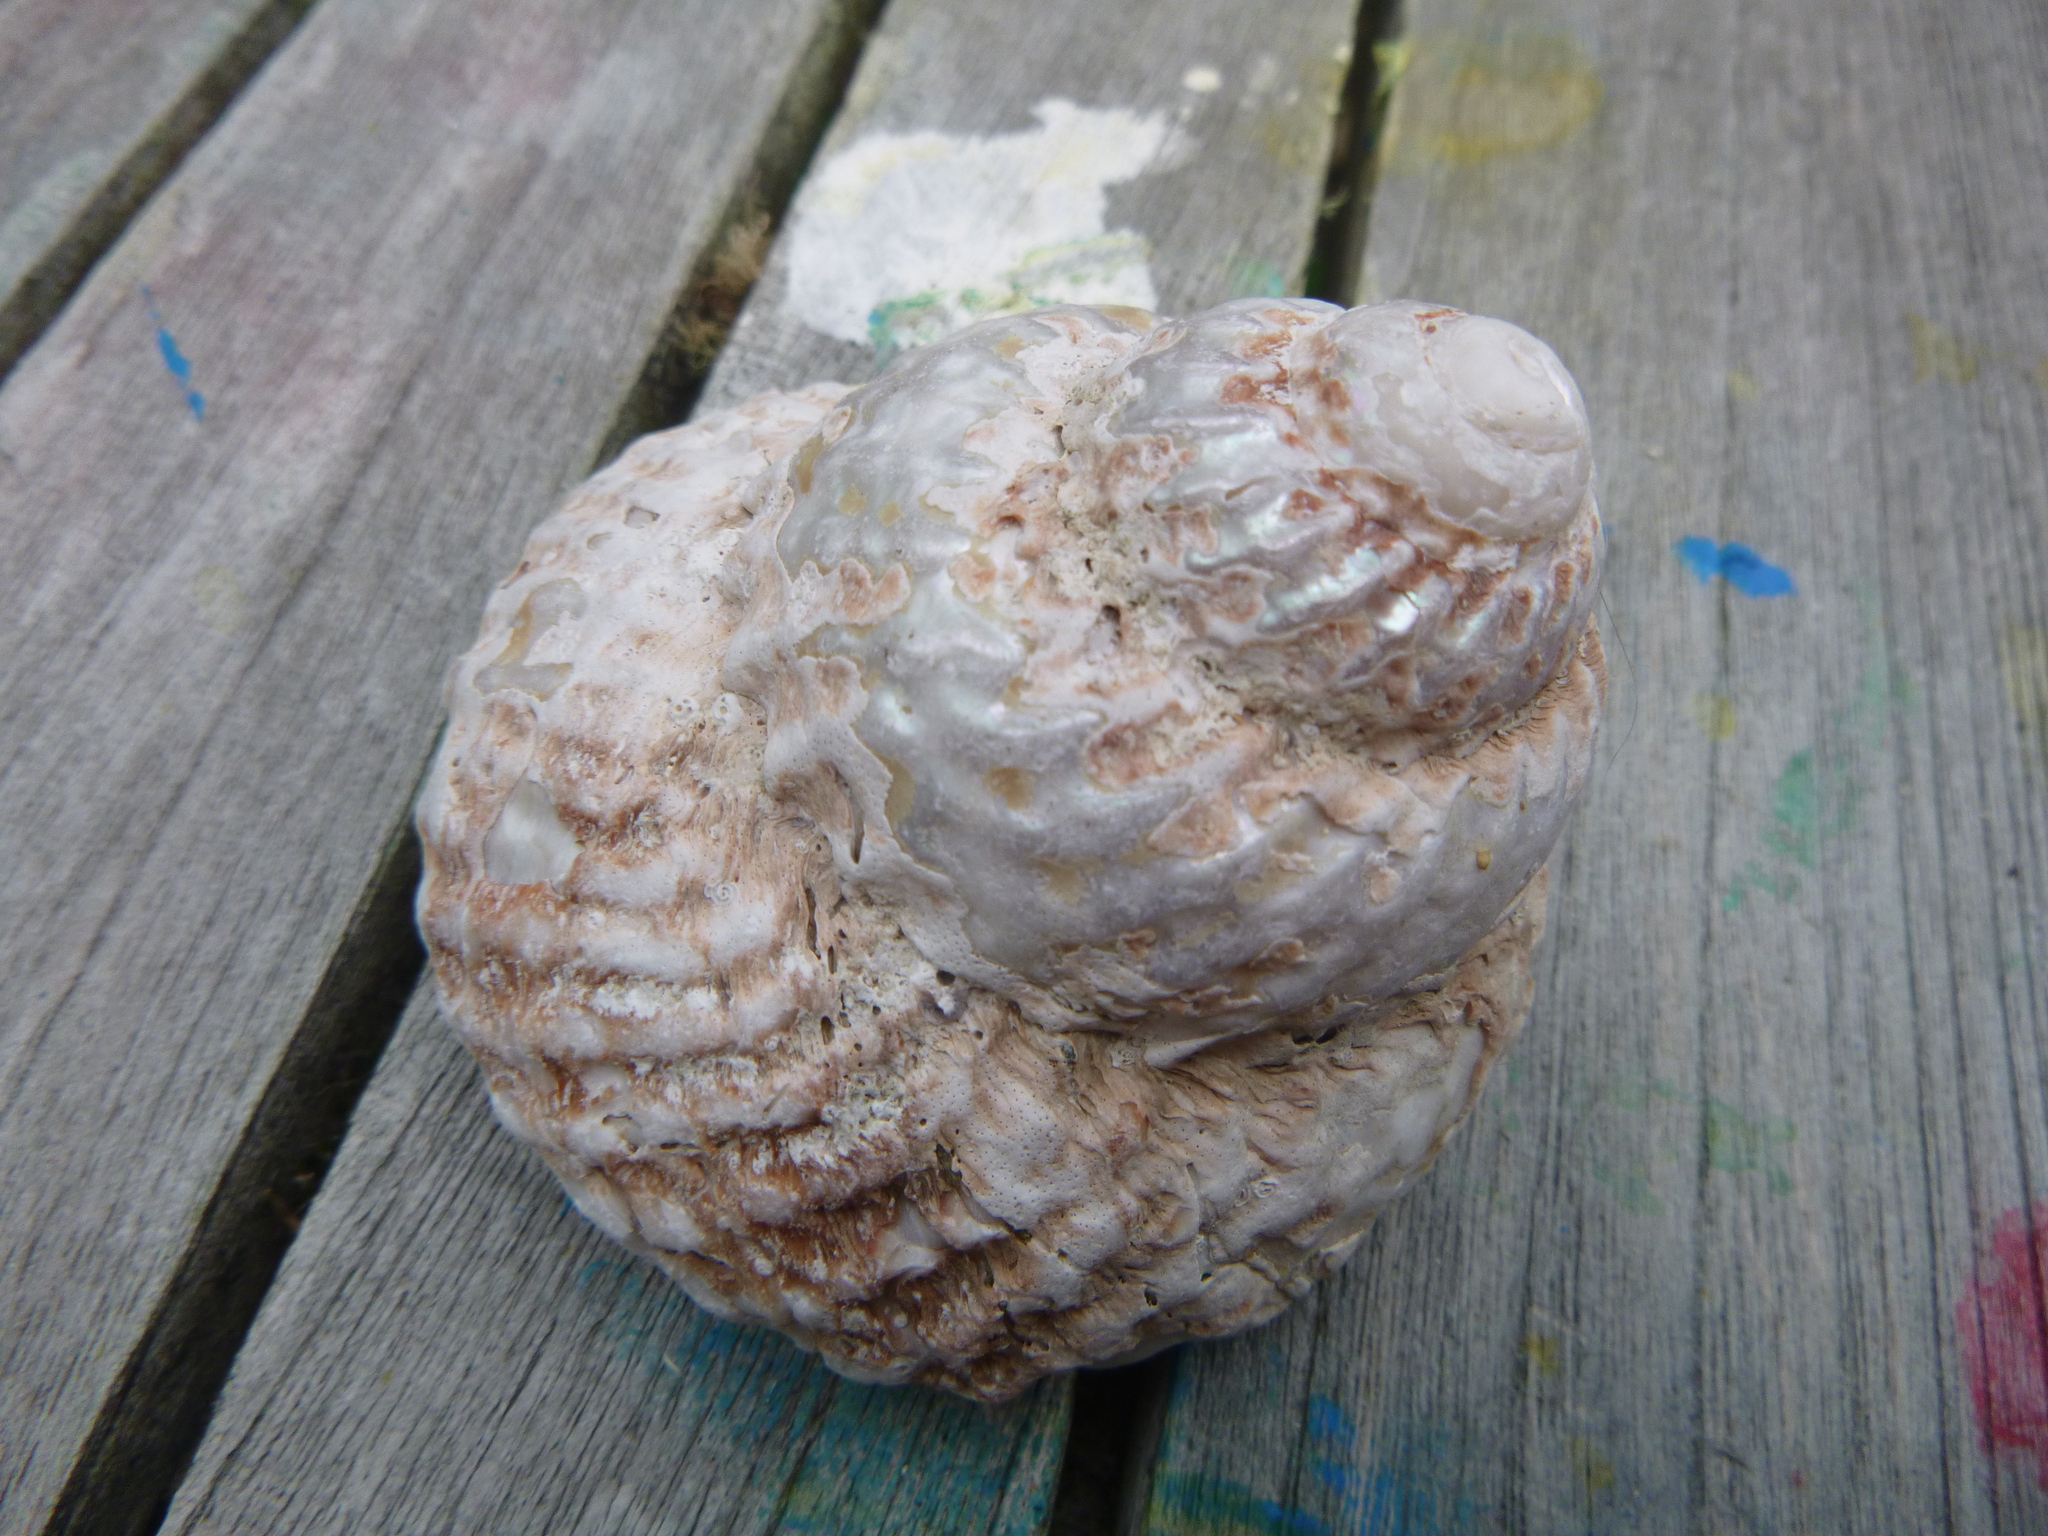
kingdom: Animalia
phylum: Mollusca
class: Gastropoda
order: Trochida
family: Turbinidae
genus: Cookia
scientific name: Cookia sulcata
